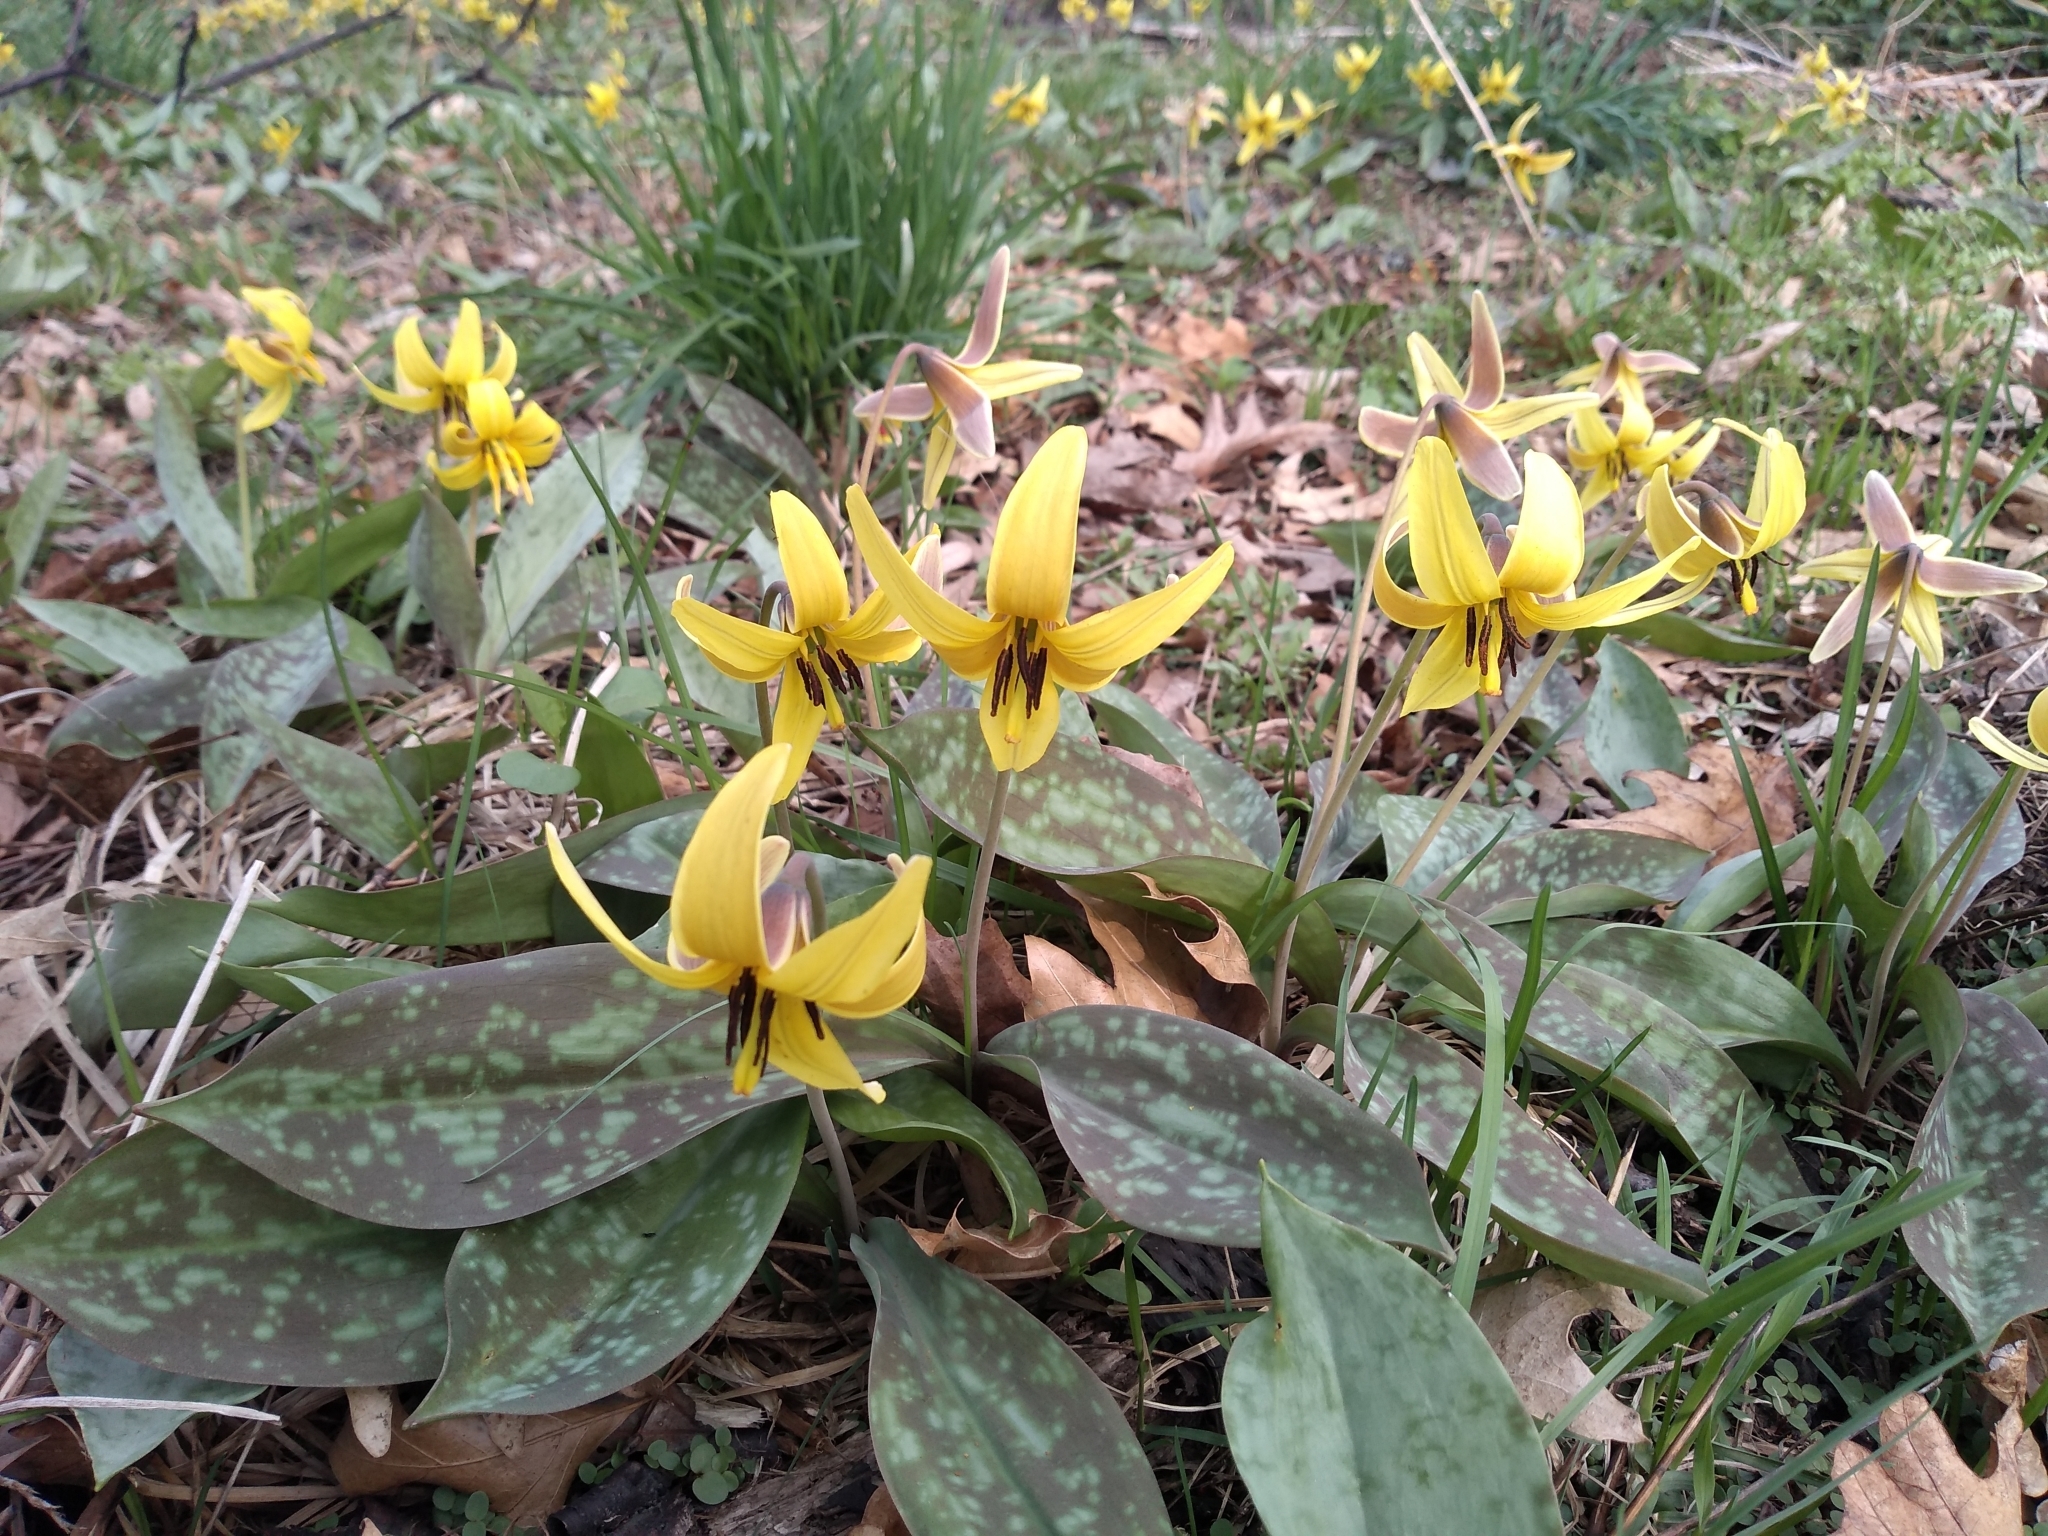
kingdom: Plantae
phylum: Tracheophyta
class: Liliopsida
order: Liliales
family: Liliaceae
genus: Erythronium
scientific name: Erythronium americanum
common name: Yellow adder's-tongue
